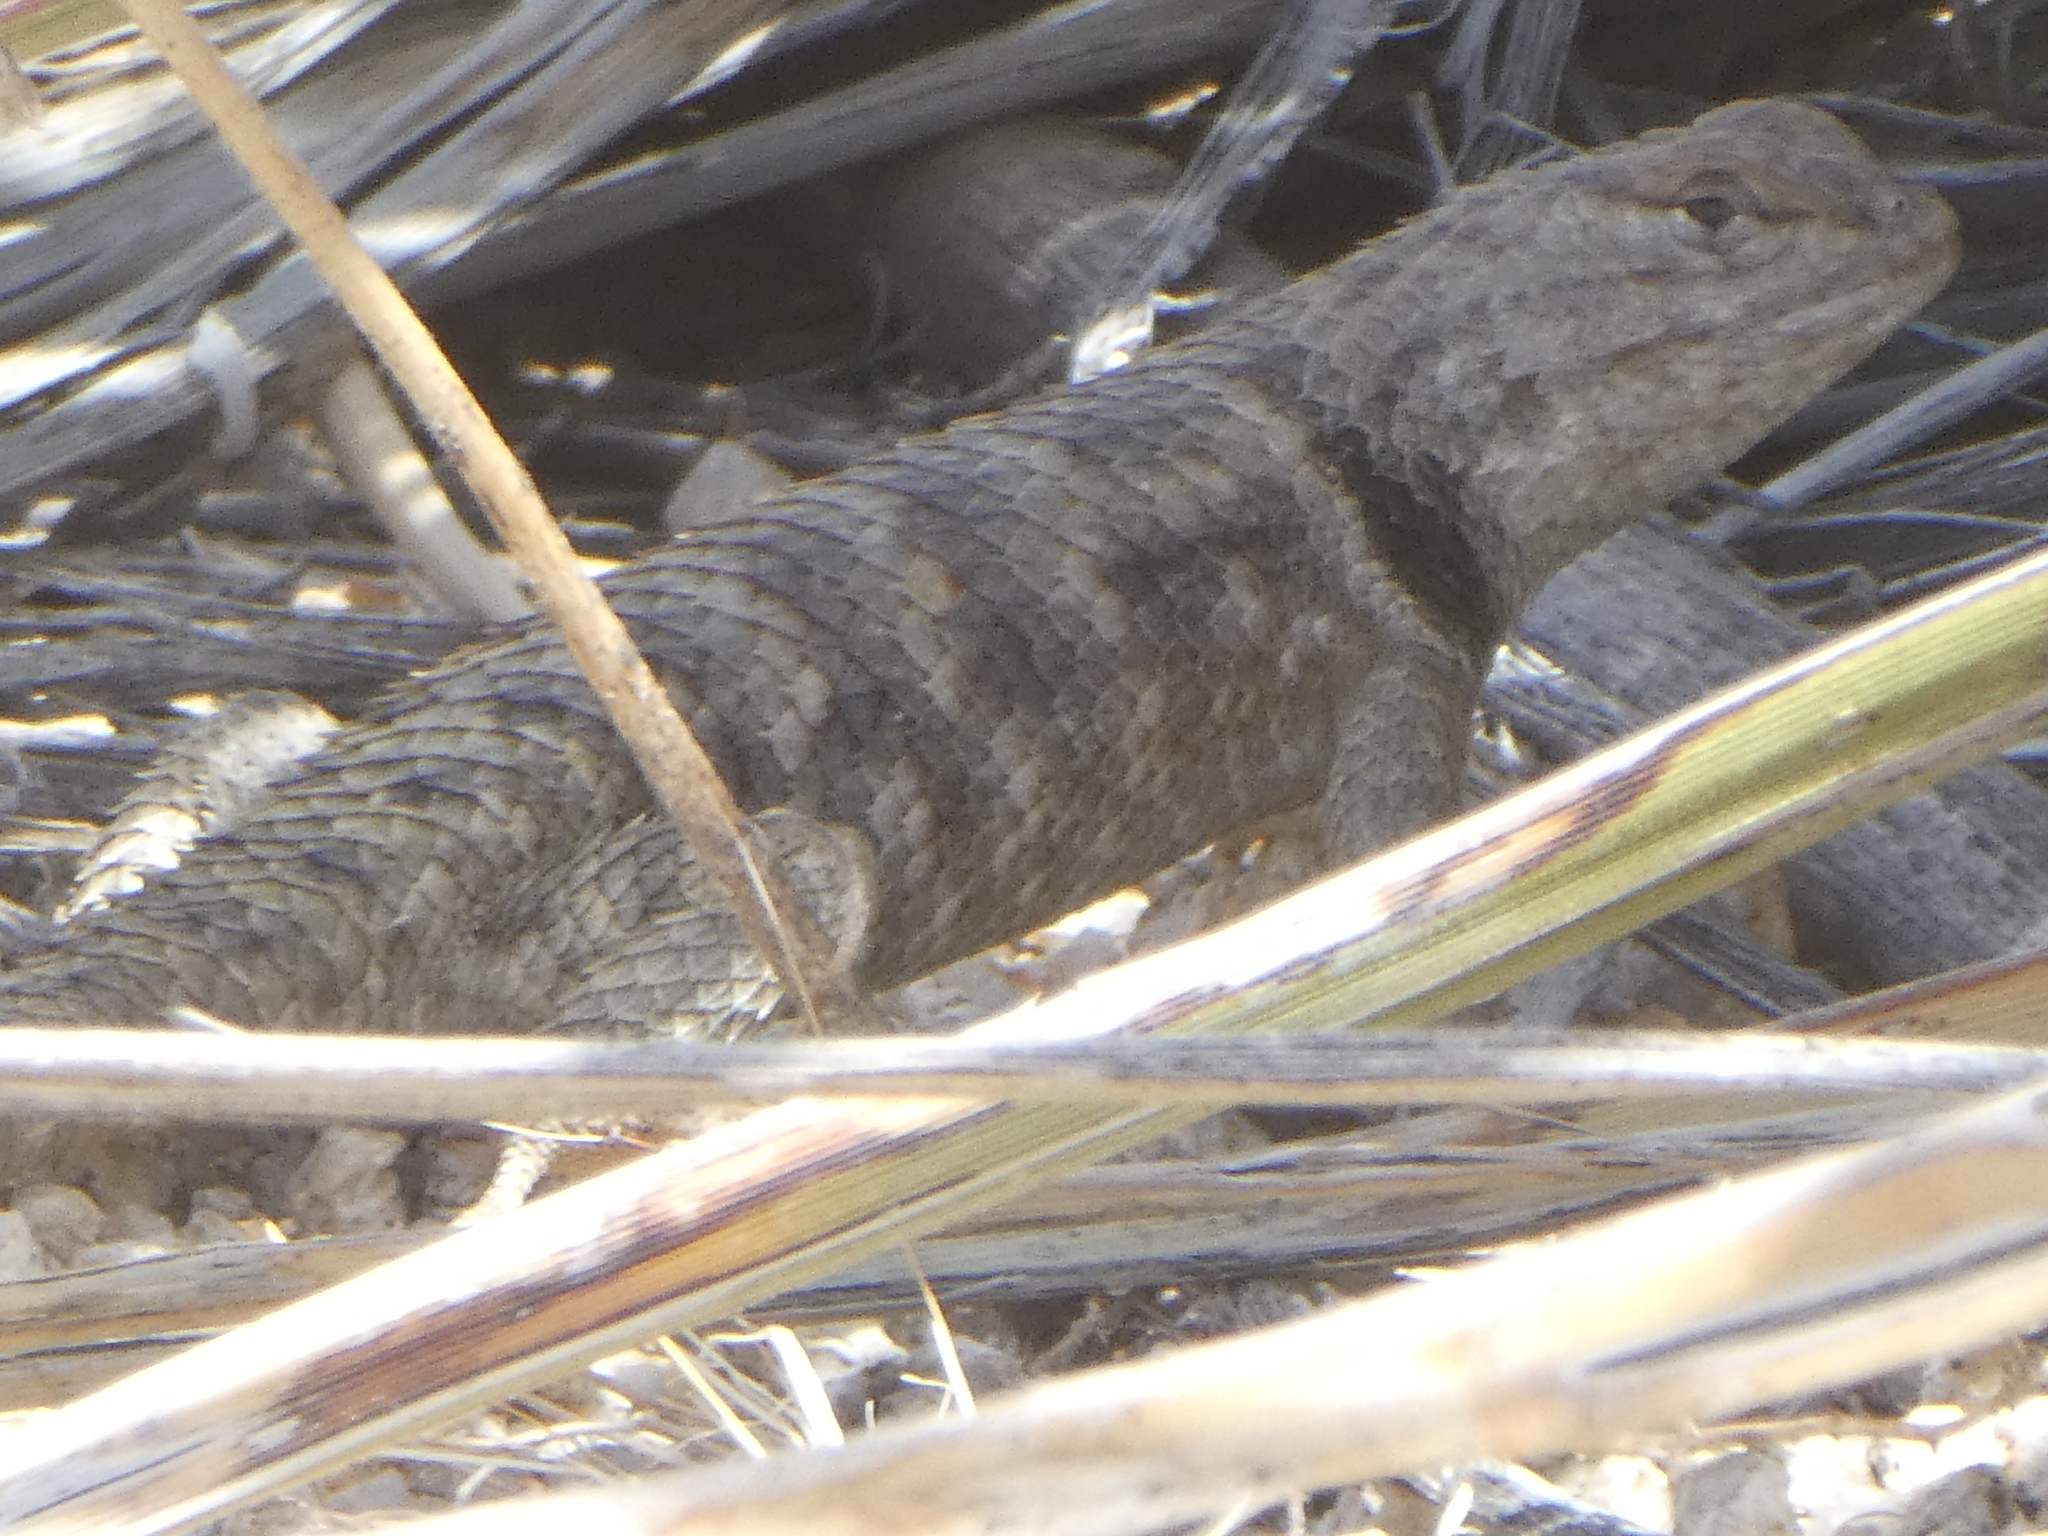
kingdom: Animalia
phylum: Chordata
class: Squamata
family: Phrynosomatidae
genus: Sceloporus
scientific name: Sceloporus magister
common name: Desert spiny lizard
